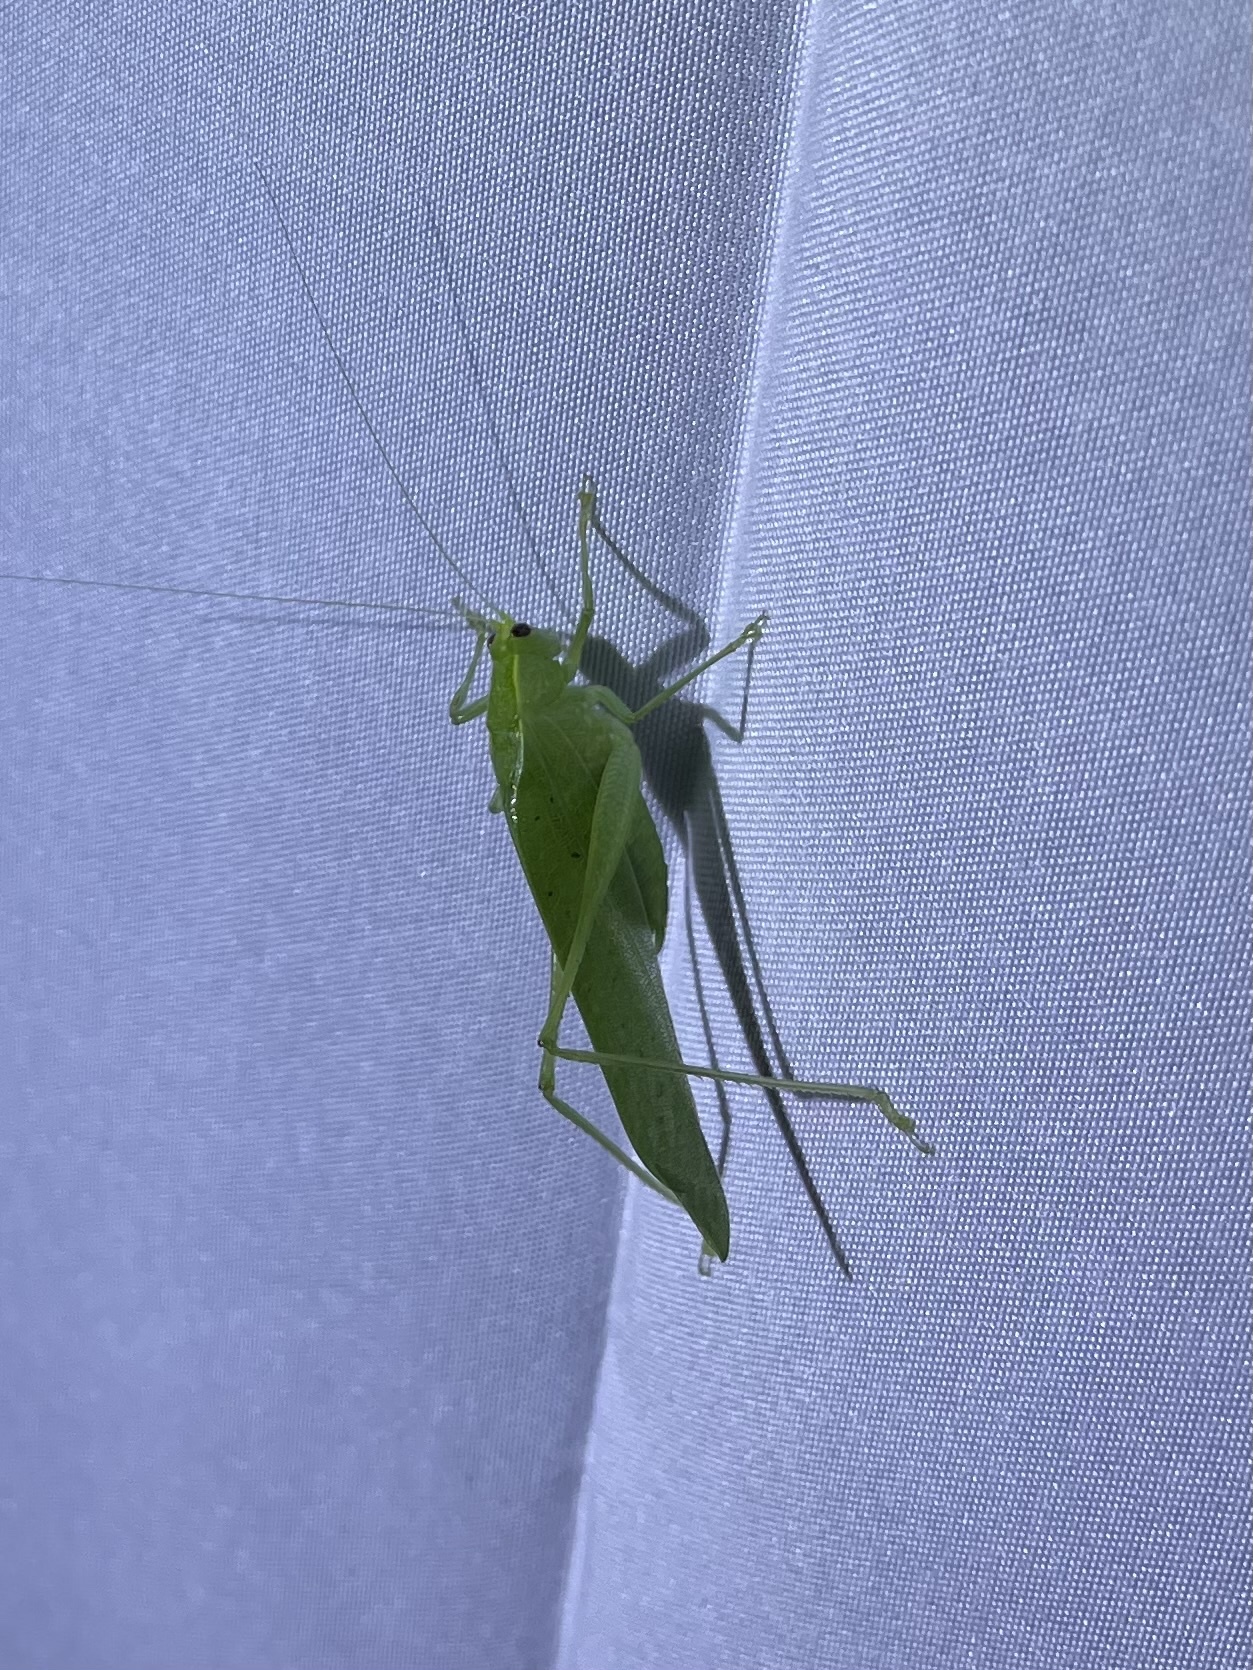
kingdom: Animalia
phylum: Arthropoda
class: Insecta
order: Orthoptera
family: Tettigoniidae
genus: Montezumina
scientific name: Montezumina modesta
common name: Modest katydid
